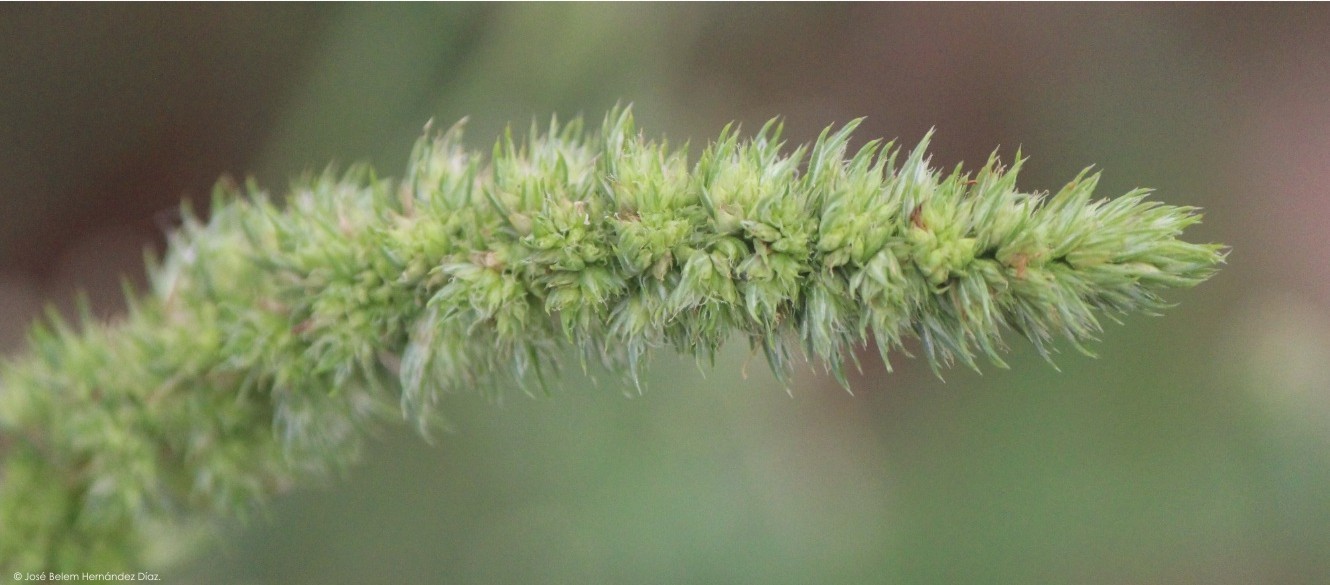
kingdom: Plantae
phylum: Tracheophyta
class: Magnoliopsida
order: Caryophyllales
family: Amaranthaceae
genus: Amaranthus
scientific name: Amaranthus hybridus
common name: Green amaranth
